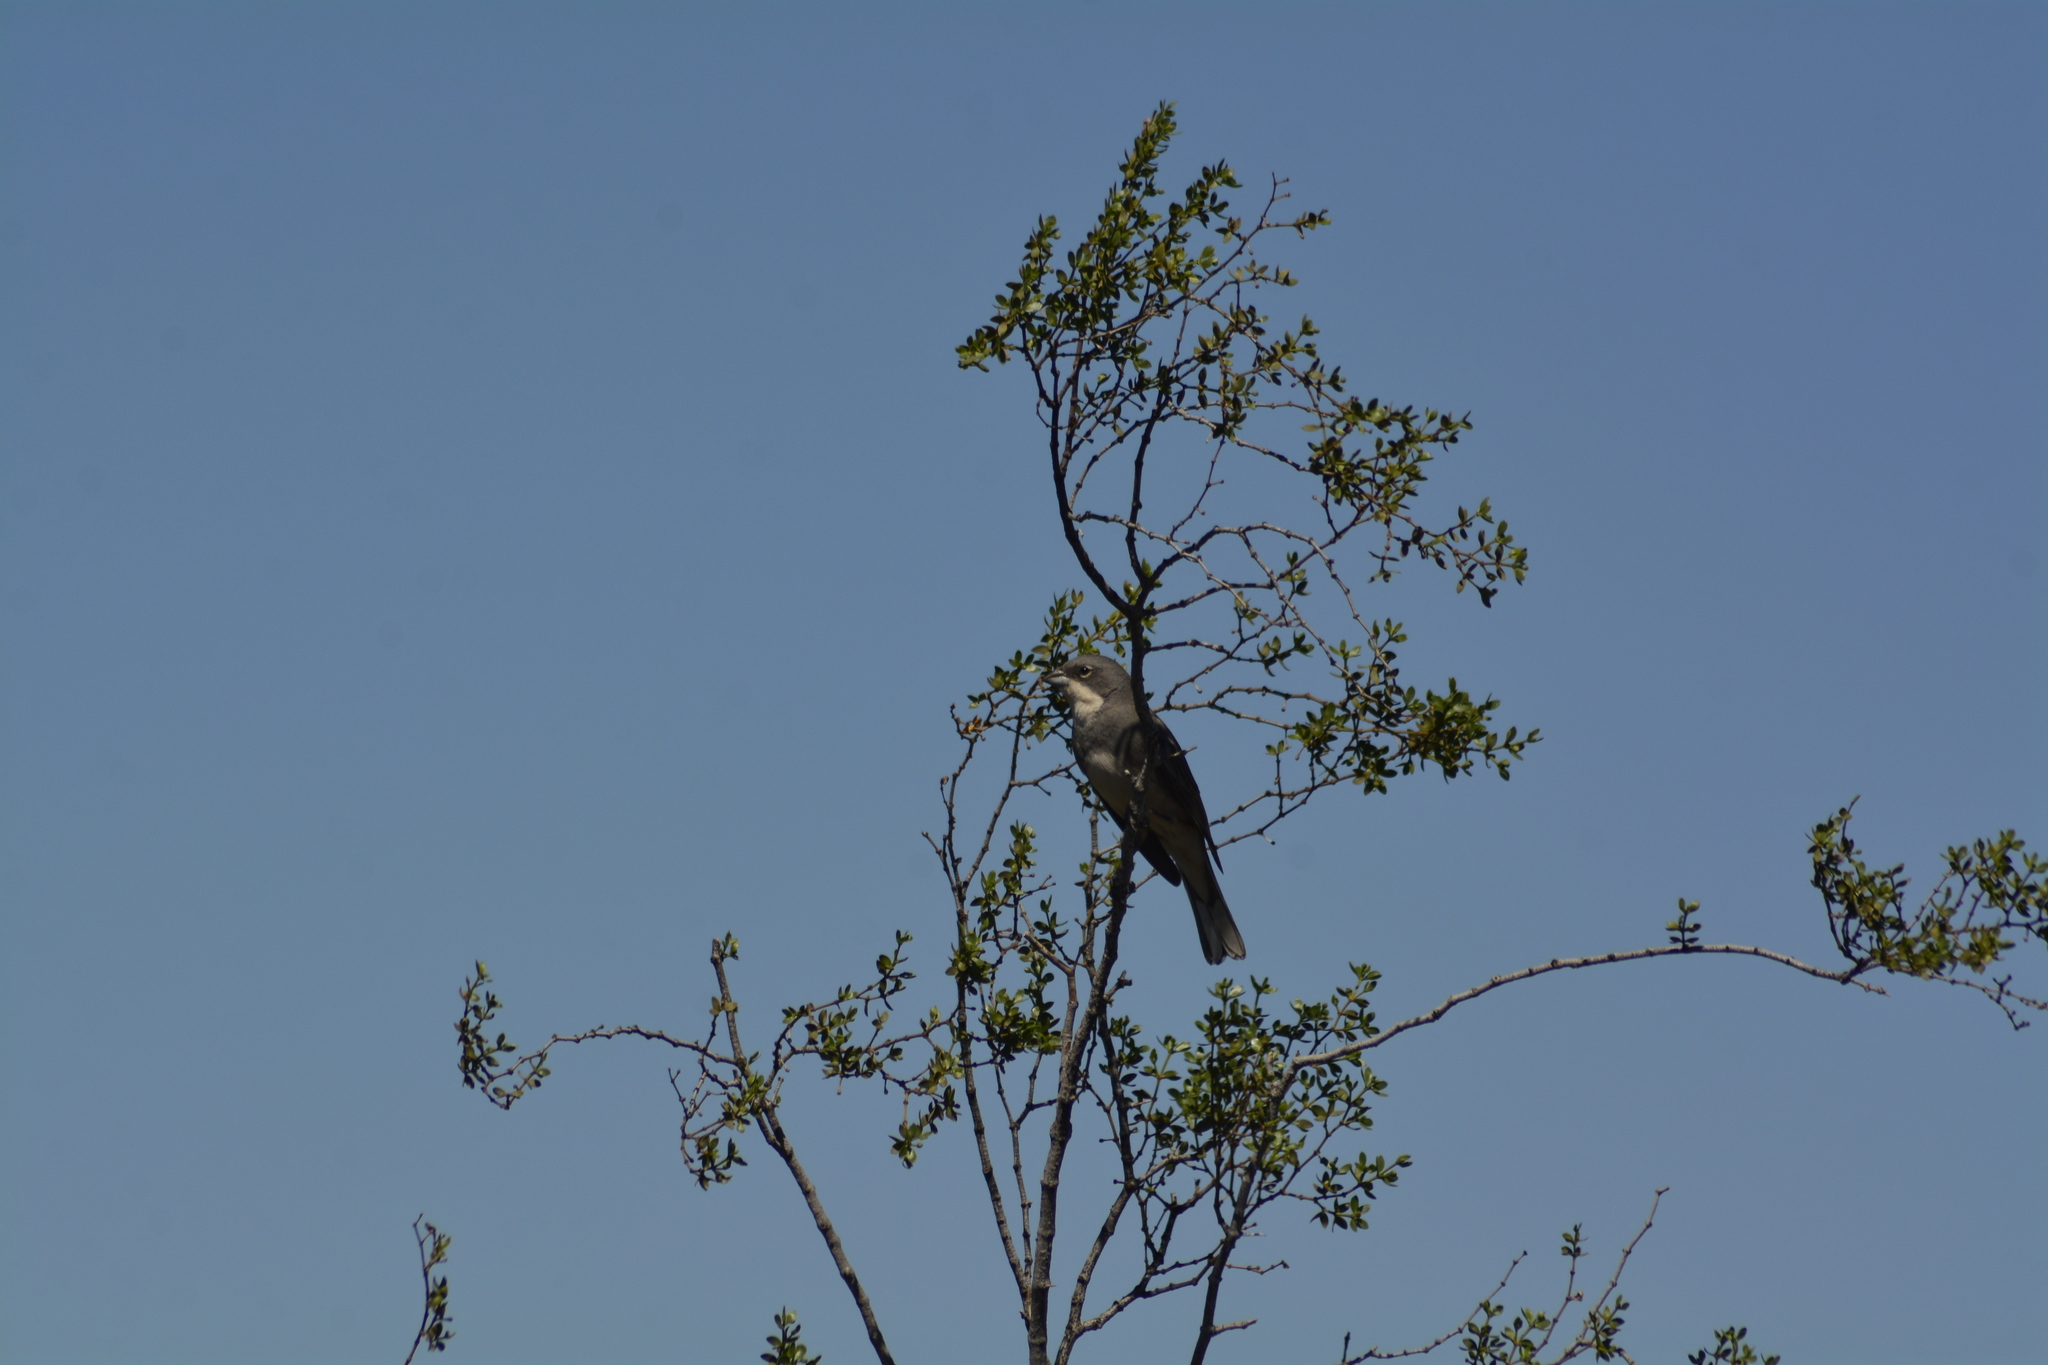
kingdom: Animalia
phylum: Chordata
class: Aves
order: Passeriformes
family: Thraupidae
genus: Diuca
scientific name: Diuca diuca
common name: Common diuca finch
